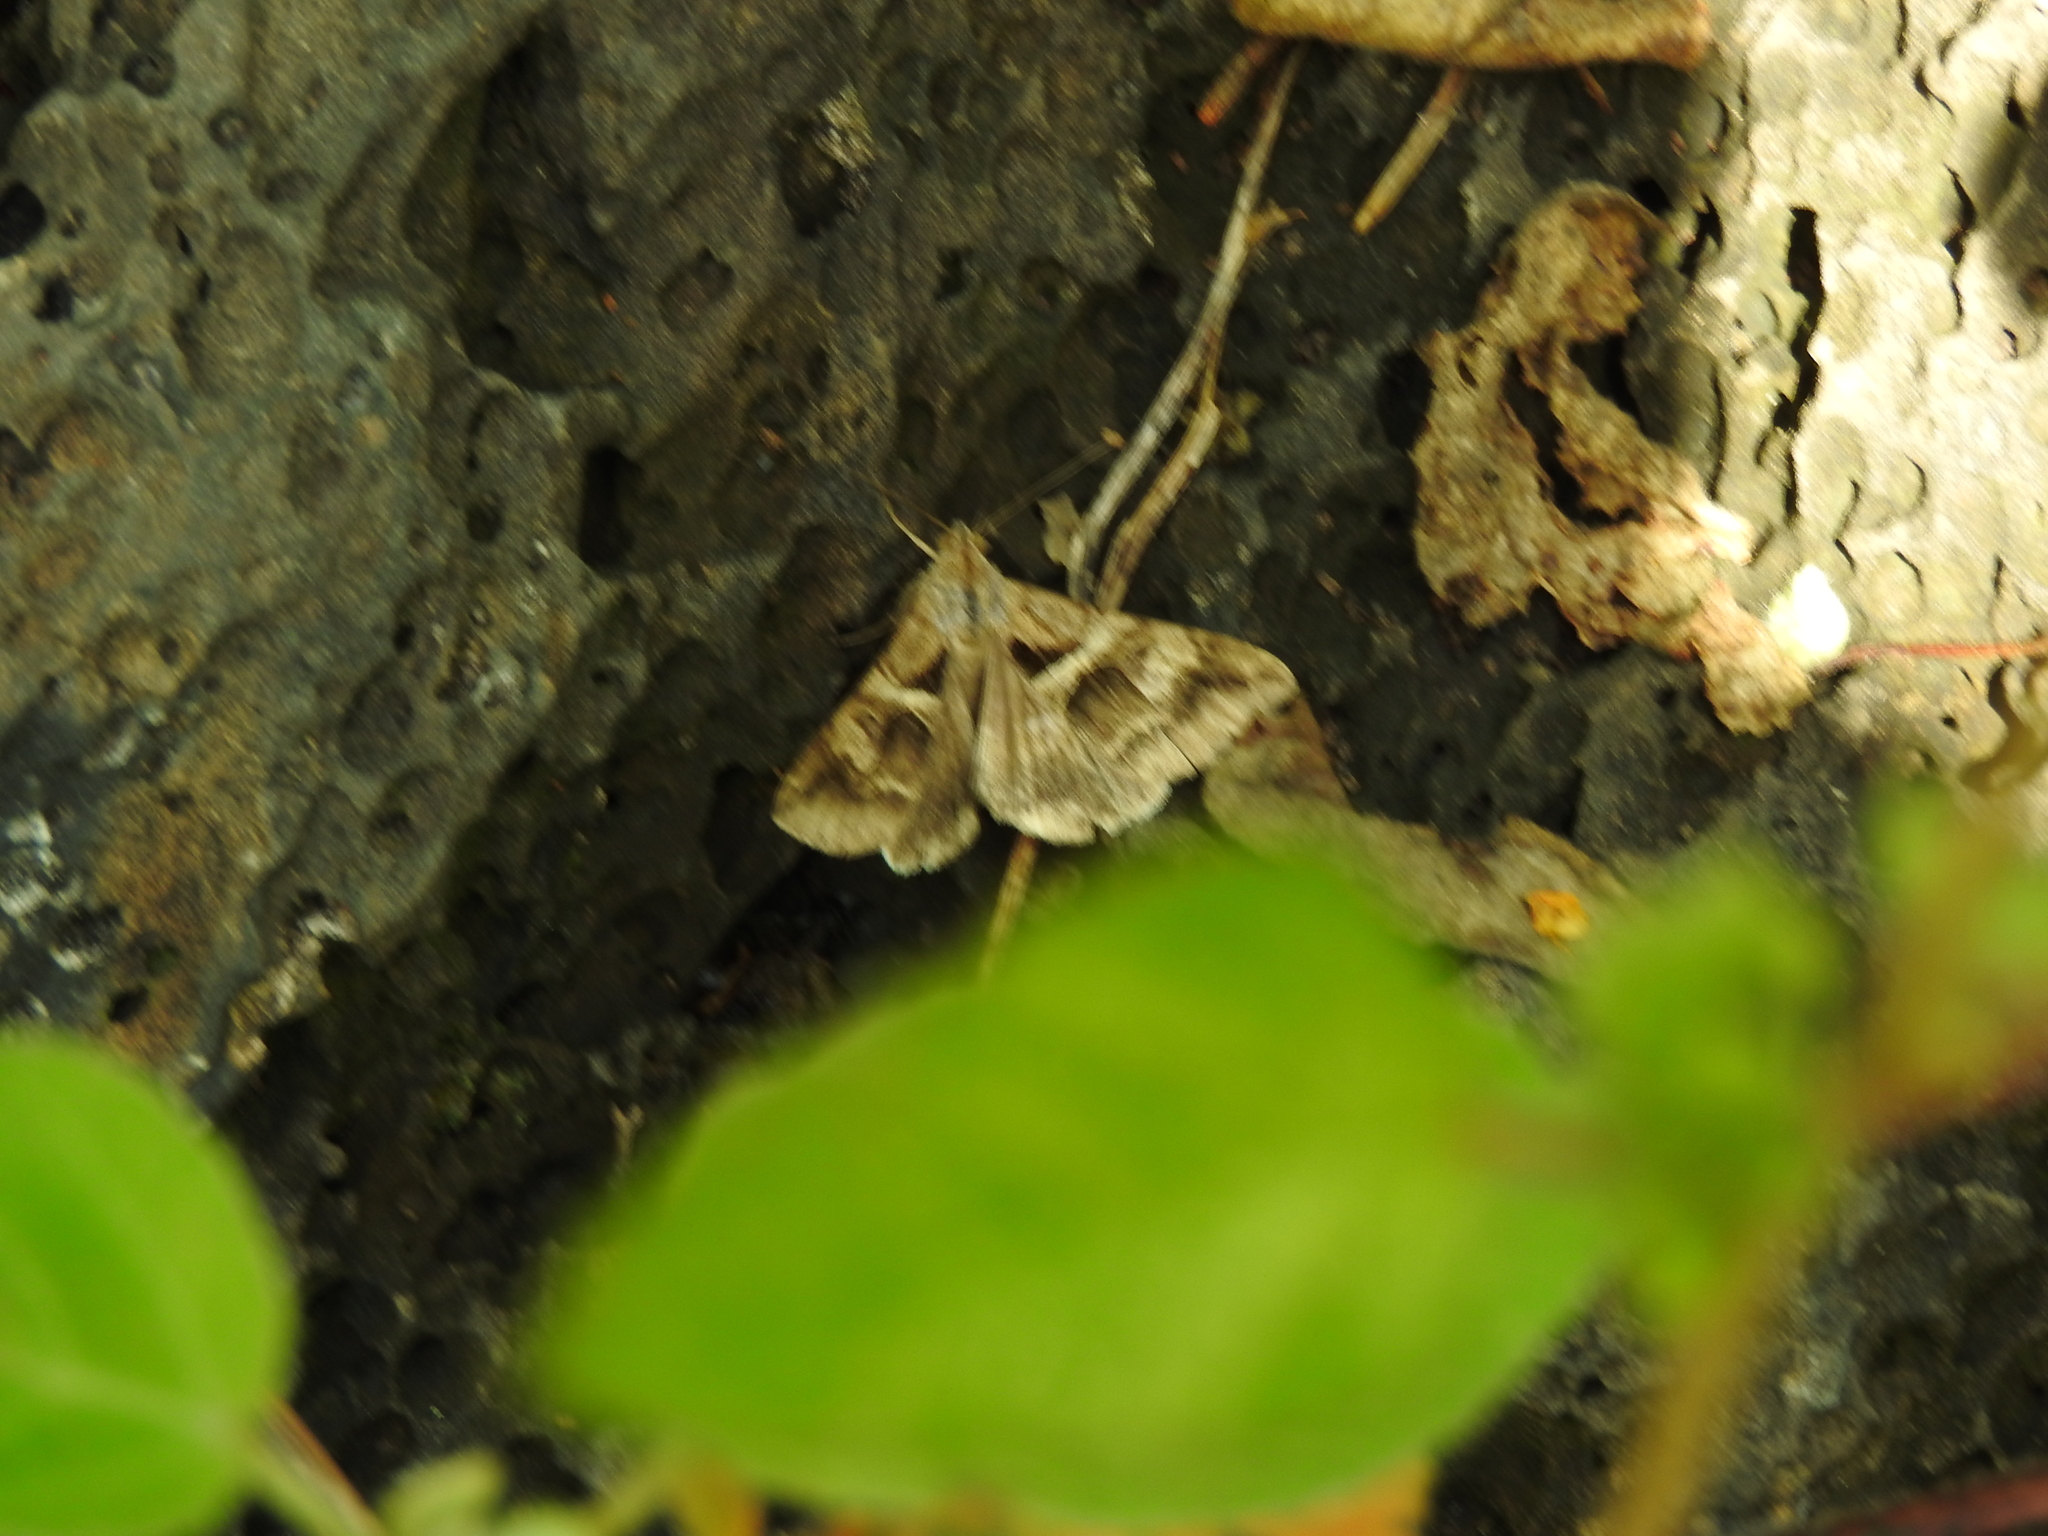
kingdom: Animalia
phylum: Arthropoda
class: Insecta
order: Lepidoptera
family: Erebidae
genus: Melipotis
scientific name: Melipotis cellaris
